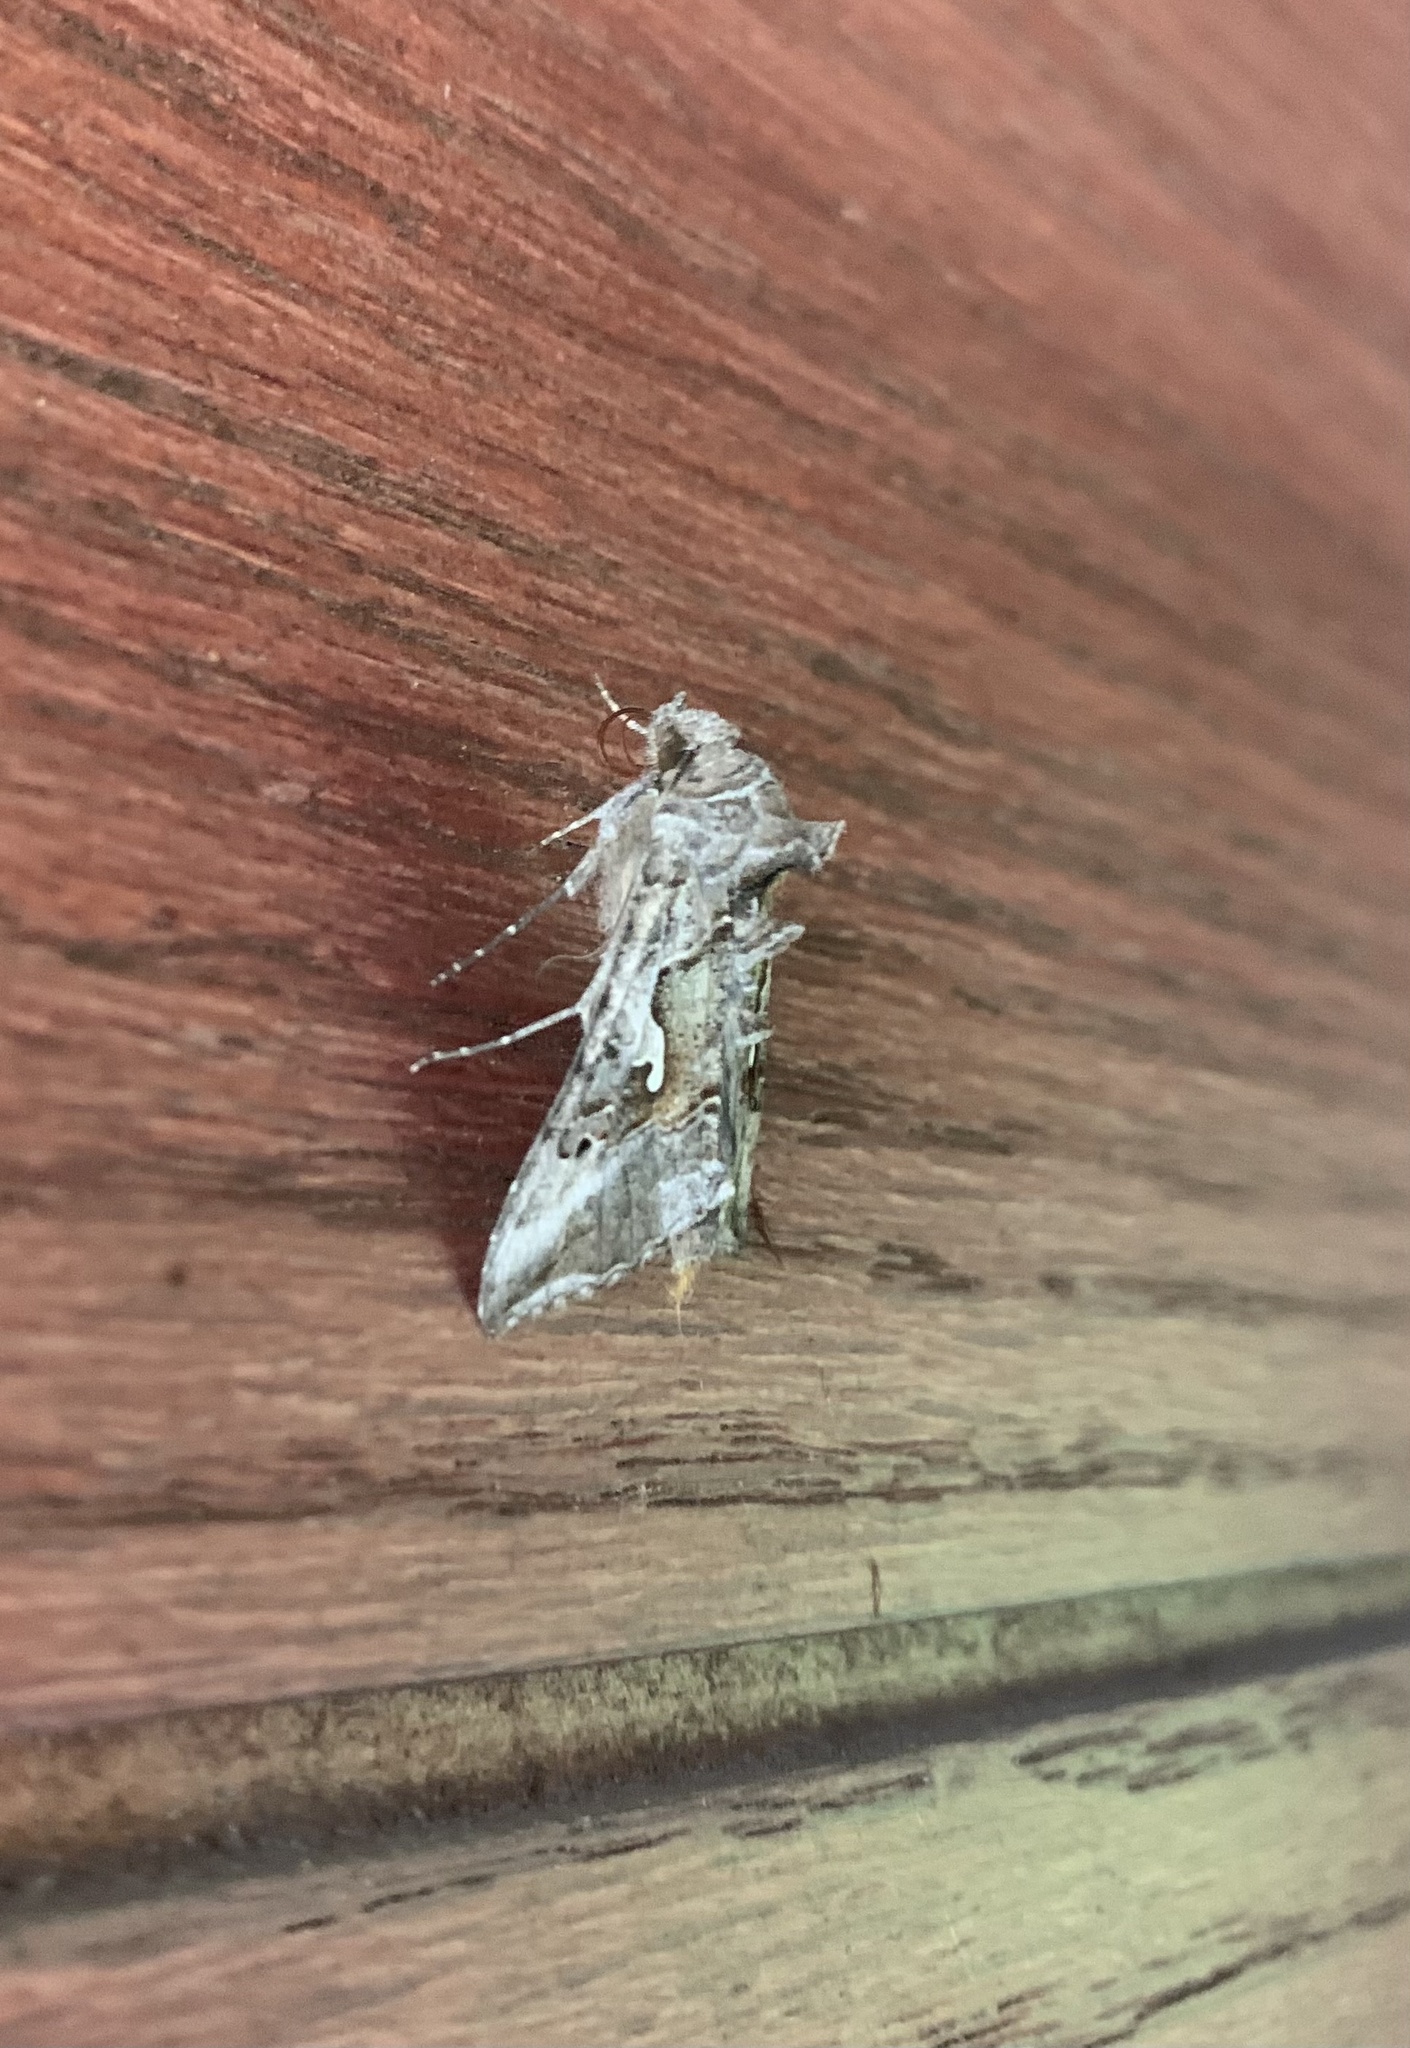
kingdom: Animalia
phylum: Arthropoda
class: Insecta
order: Lepidoptera
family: Noctuidae
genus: Autoplusia
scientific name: Autoplusia gammoides
